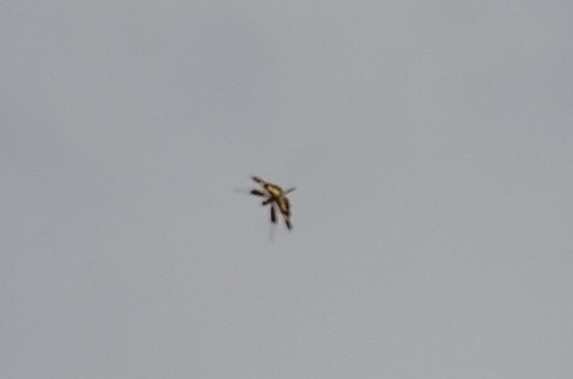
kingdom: Animalia
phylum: Arthropoda
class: Insecta
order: Odonata
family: Libellulidae
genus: Rhyothemis
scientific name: Rhyothemis variegata
